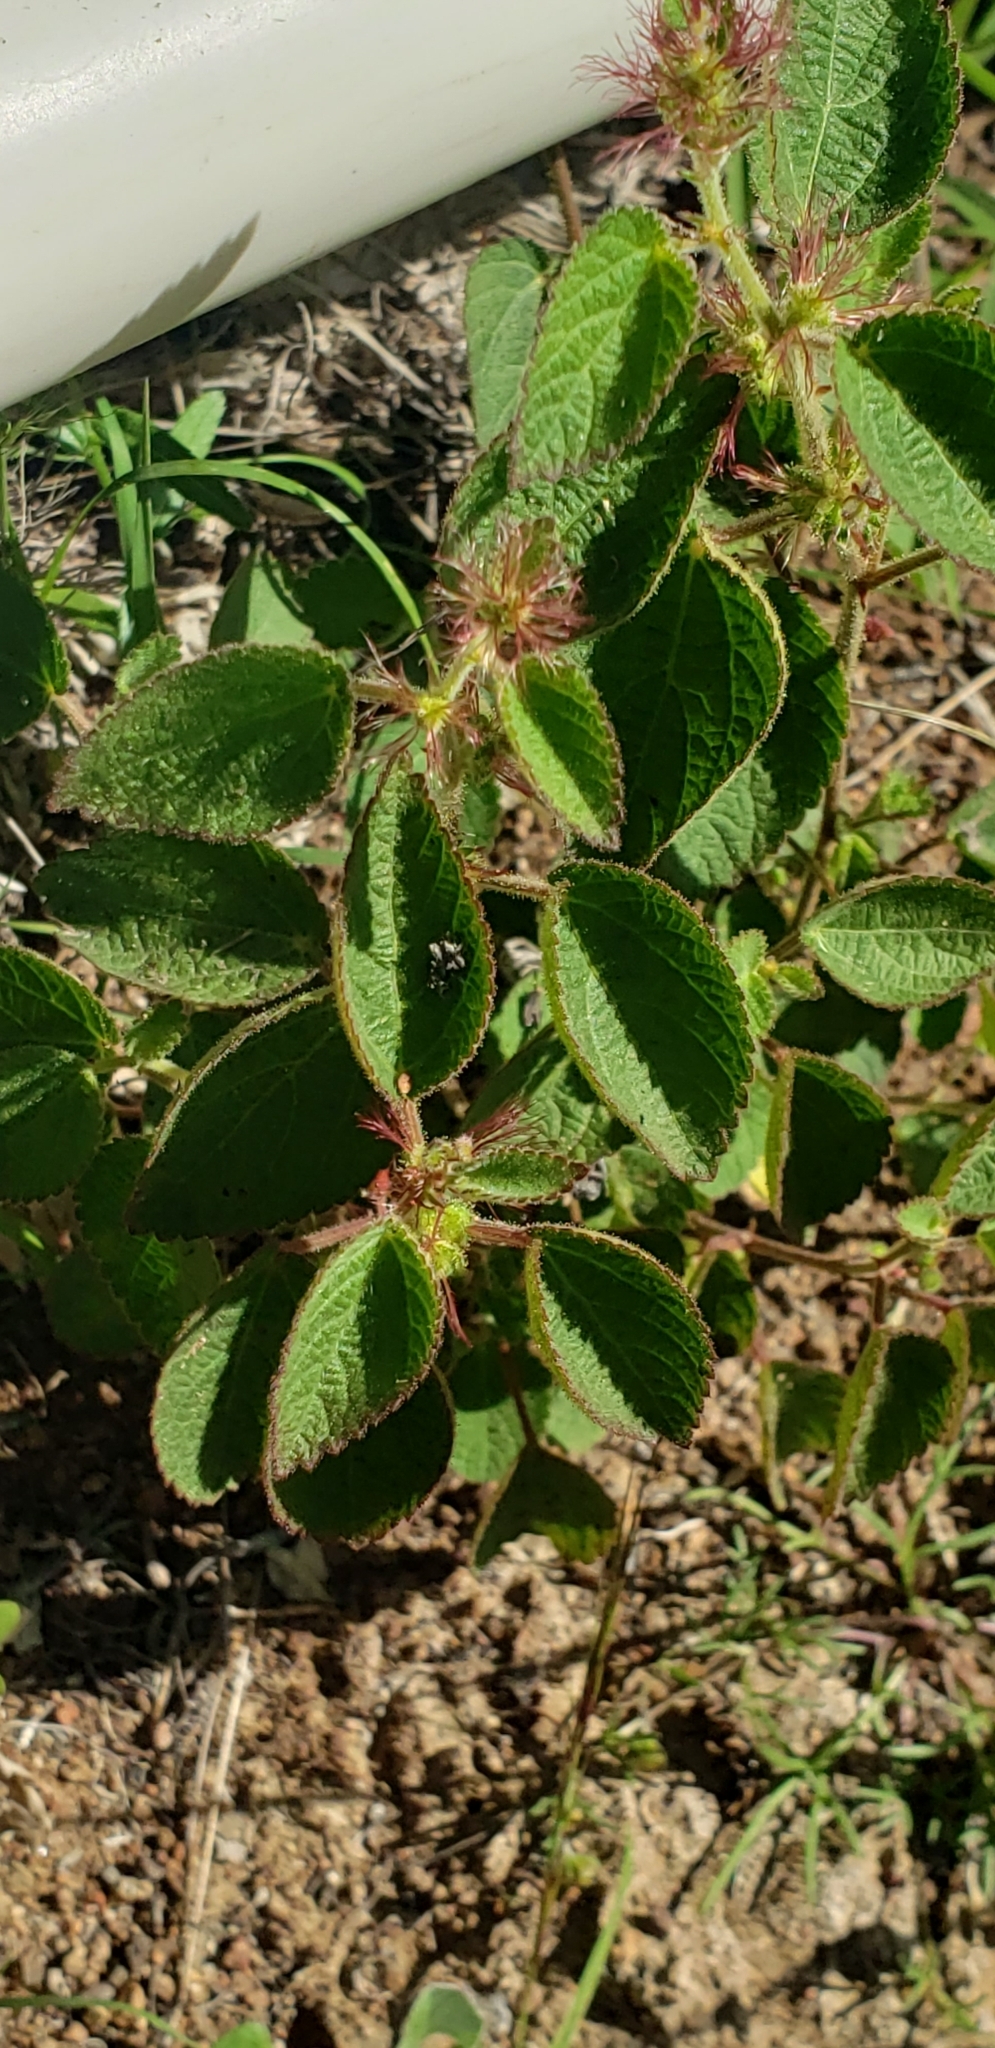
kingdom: Plantae
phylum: Tracheophyta
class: Magnoliopsida
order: Malpighiales
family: Euphorbiaceae
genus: Acalypha
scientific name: Acalypha phleoides
